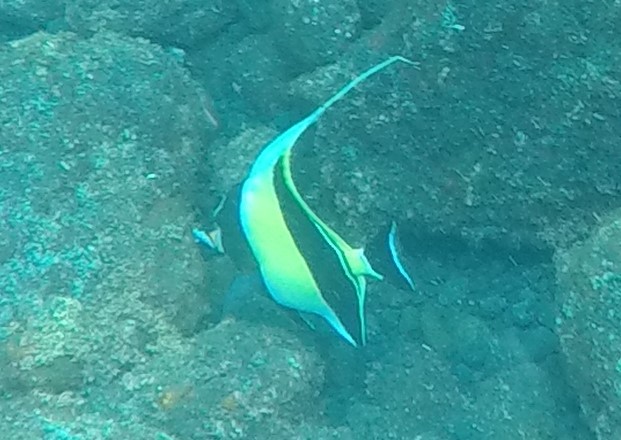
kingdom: Animalia
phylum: Chordata
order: Perciformes
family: Zanclidae
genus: Zanclus
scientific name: Zanclus cornutus
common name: Moorish idol
